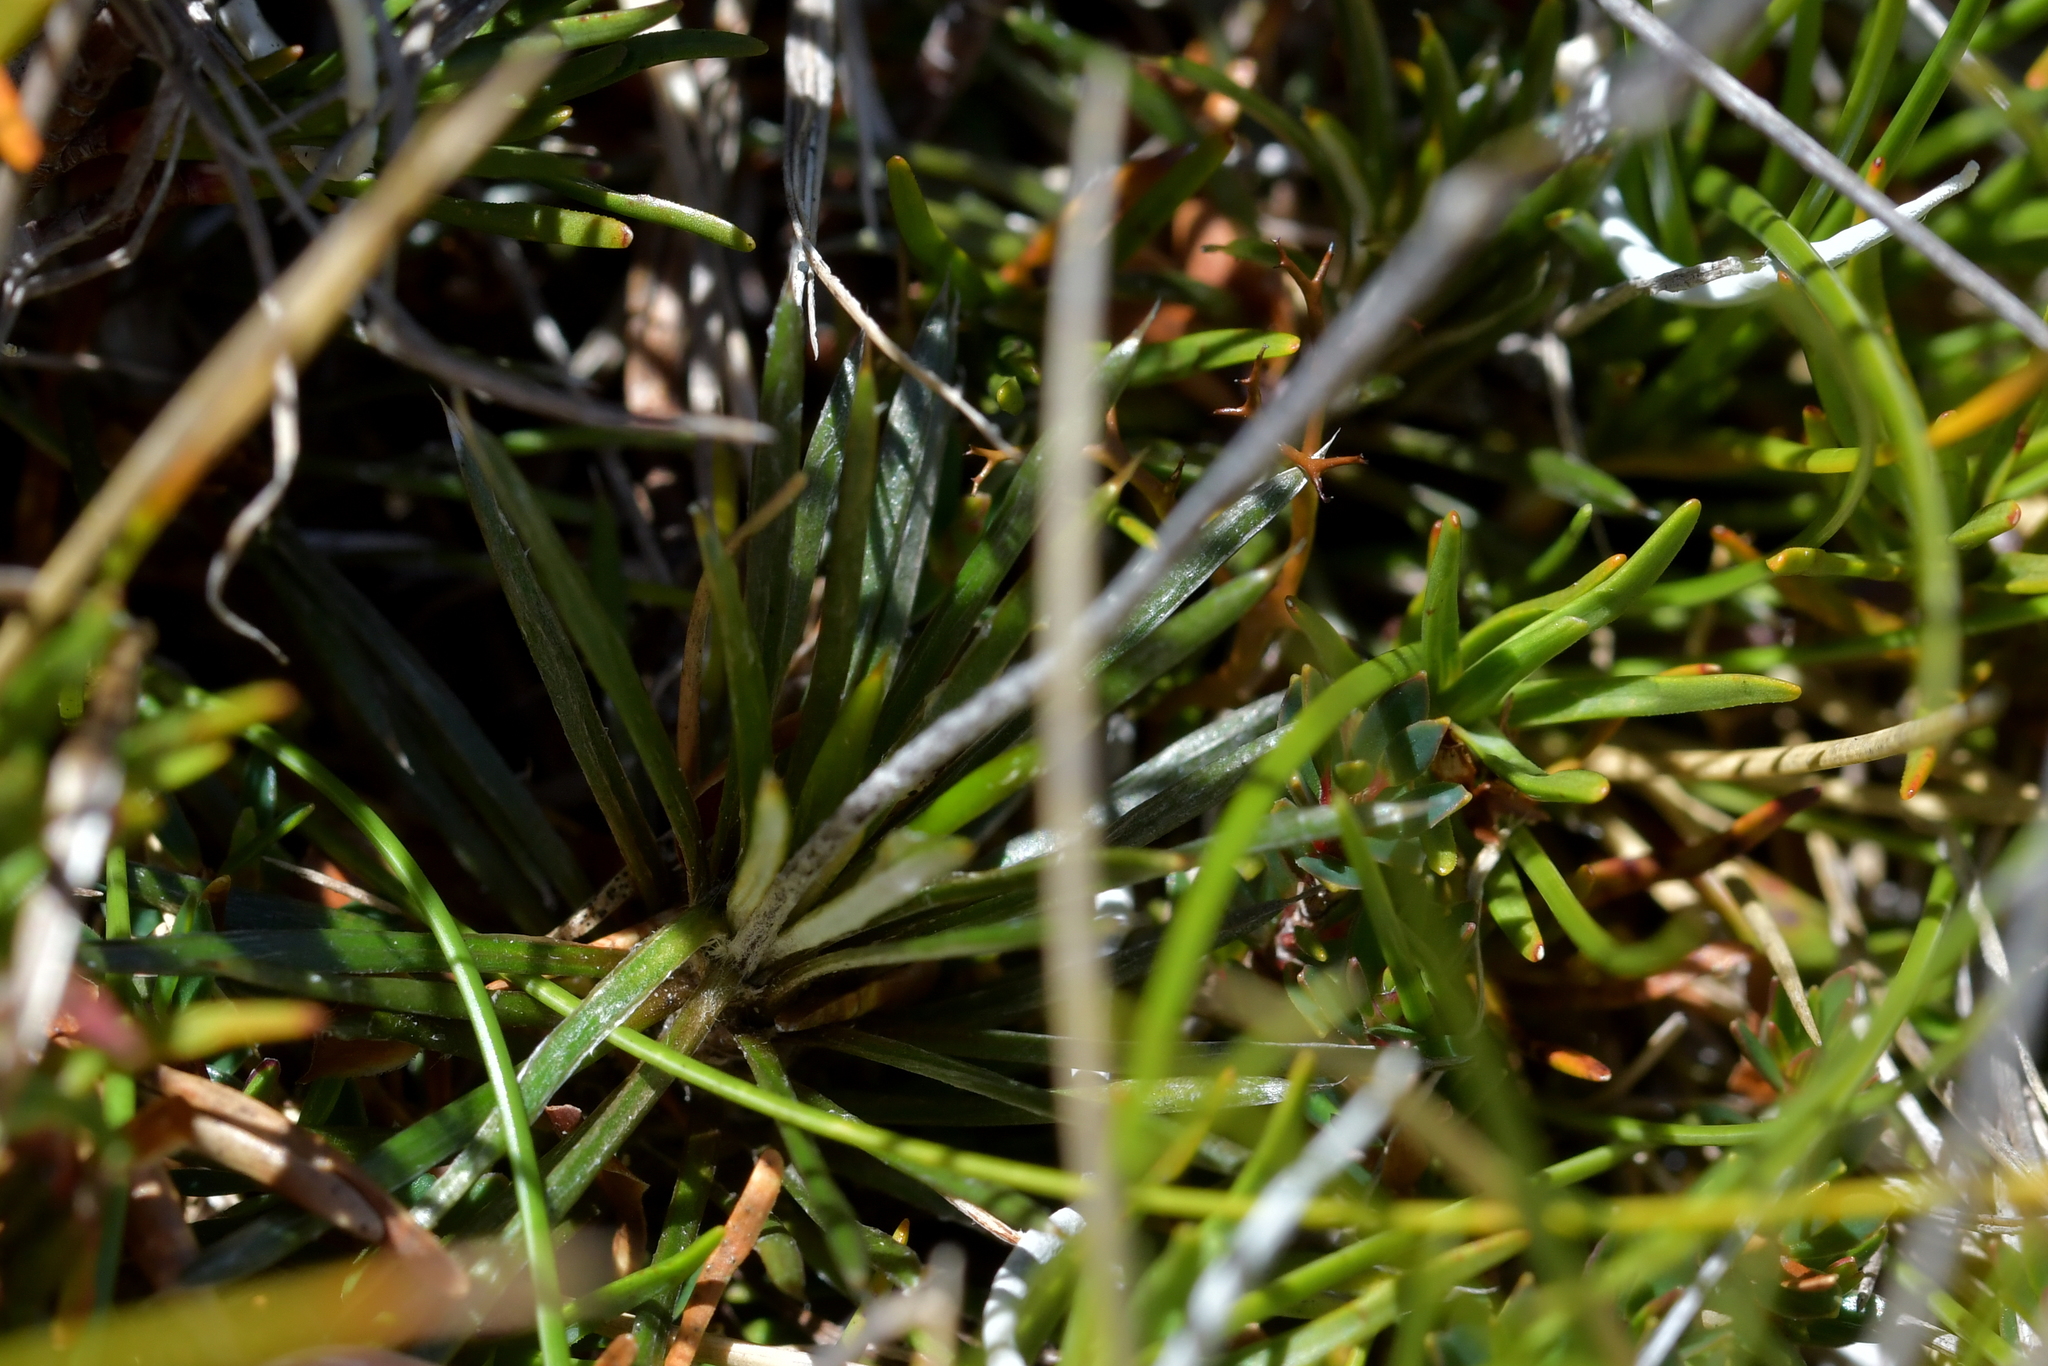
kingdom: Plantae
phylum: Tracheophyta
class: Magnoliopsida
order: Asterales
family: Asteraceae
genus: Celmisia
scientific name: Celmisia laricifolia
